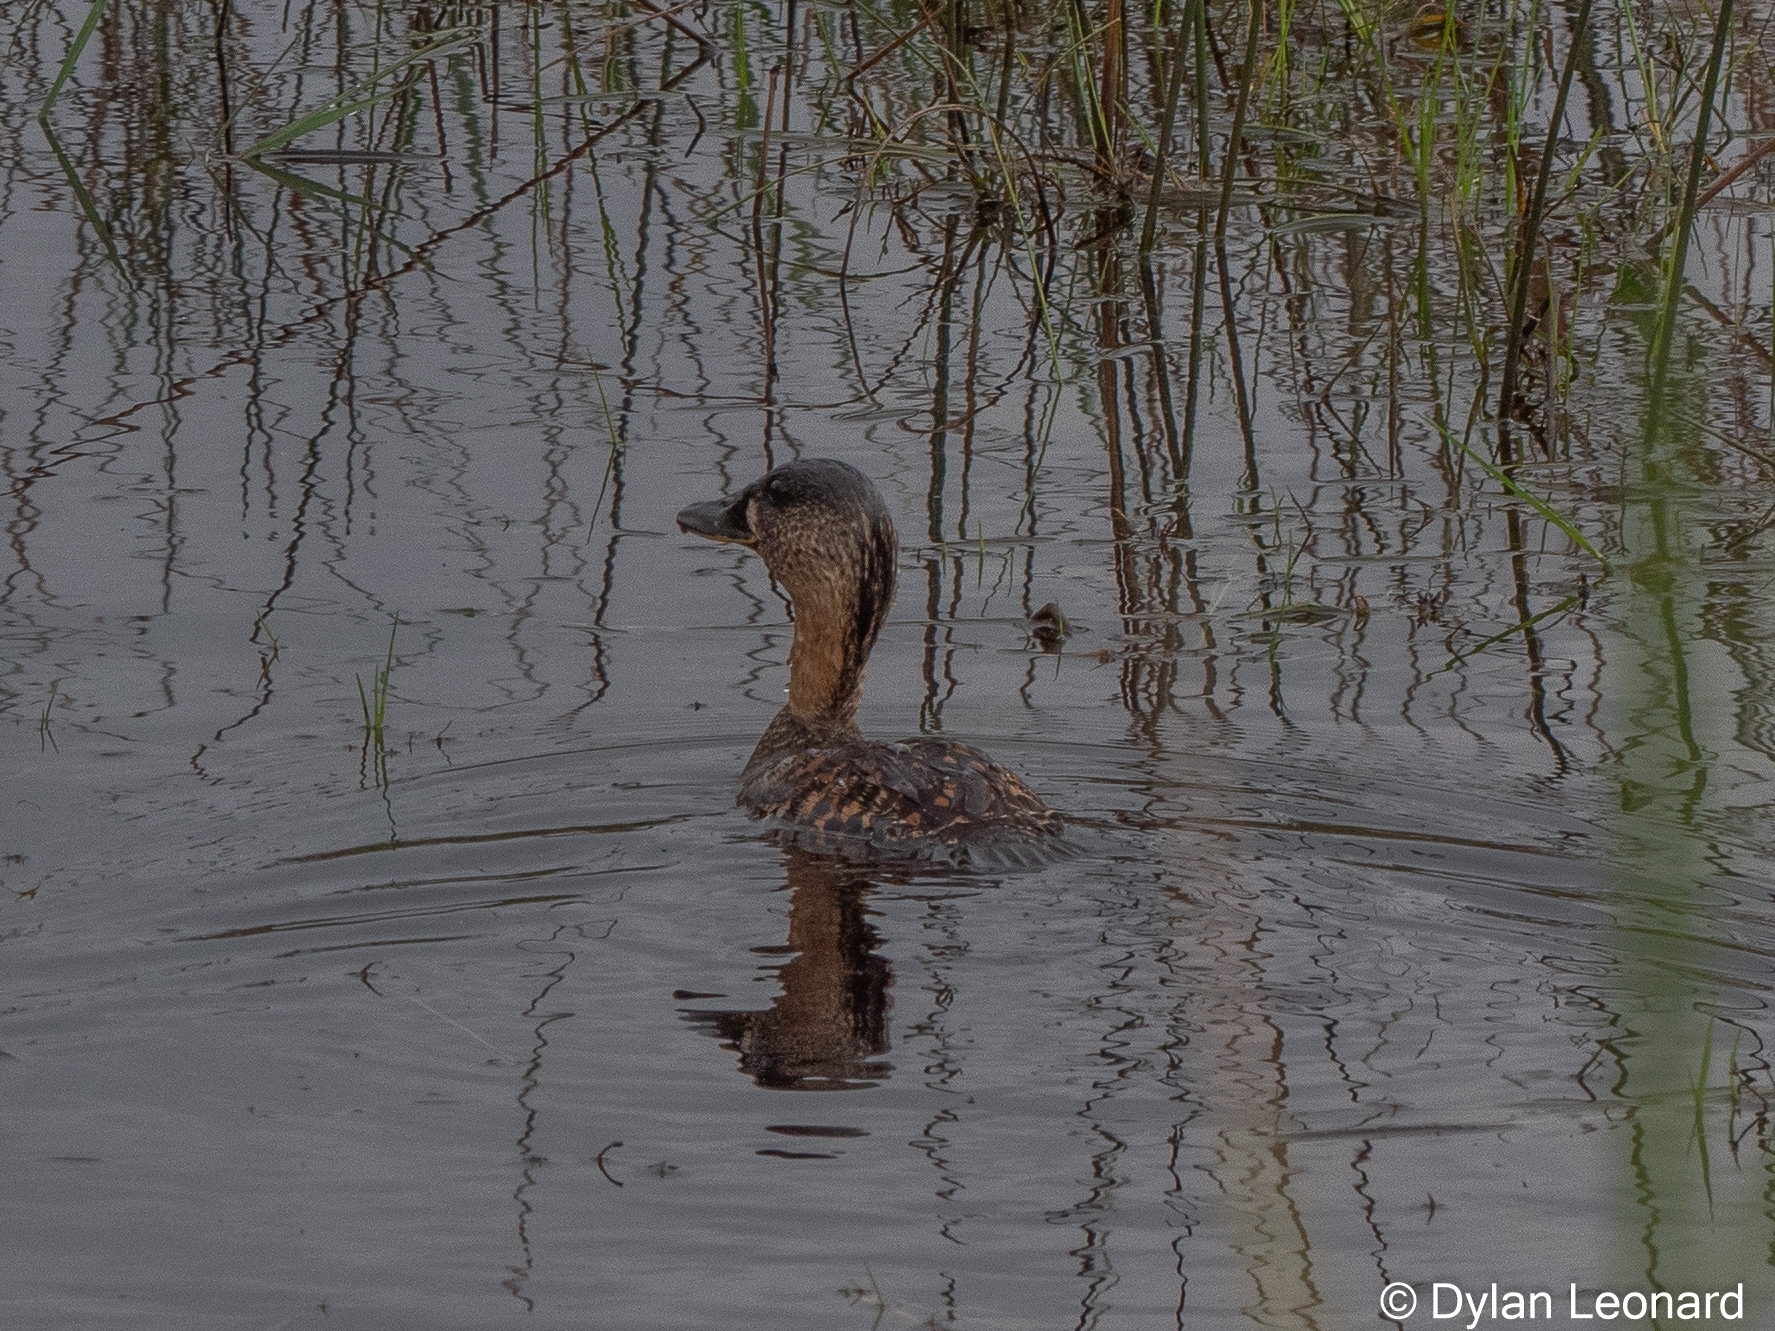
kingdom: Animalia
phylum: Chordata
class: Aves
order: Anseriformes
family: Anatidae
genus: Thalassornis
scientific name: Thalassornis leuconotus
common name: White-backed duck
